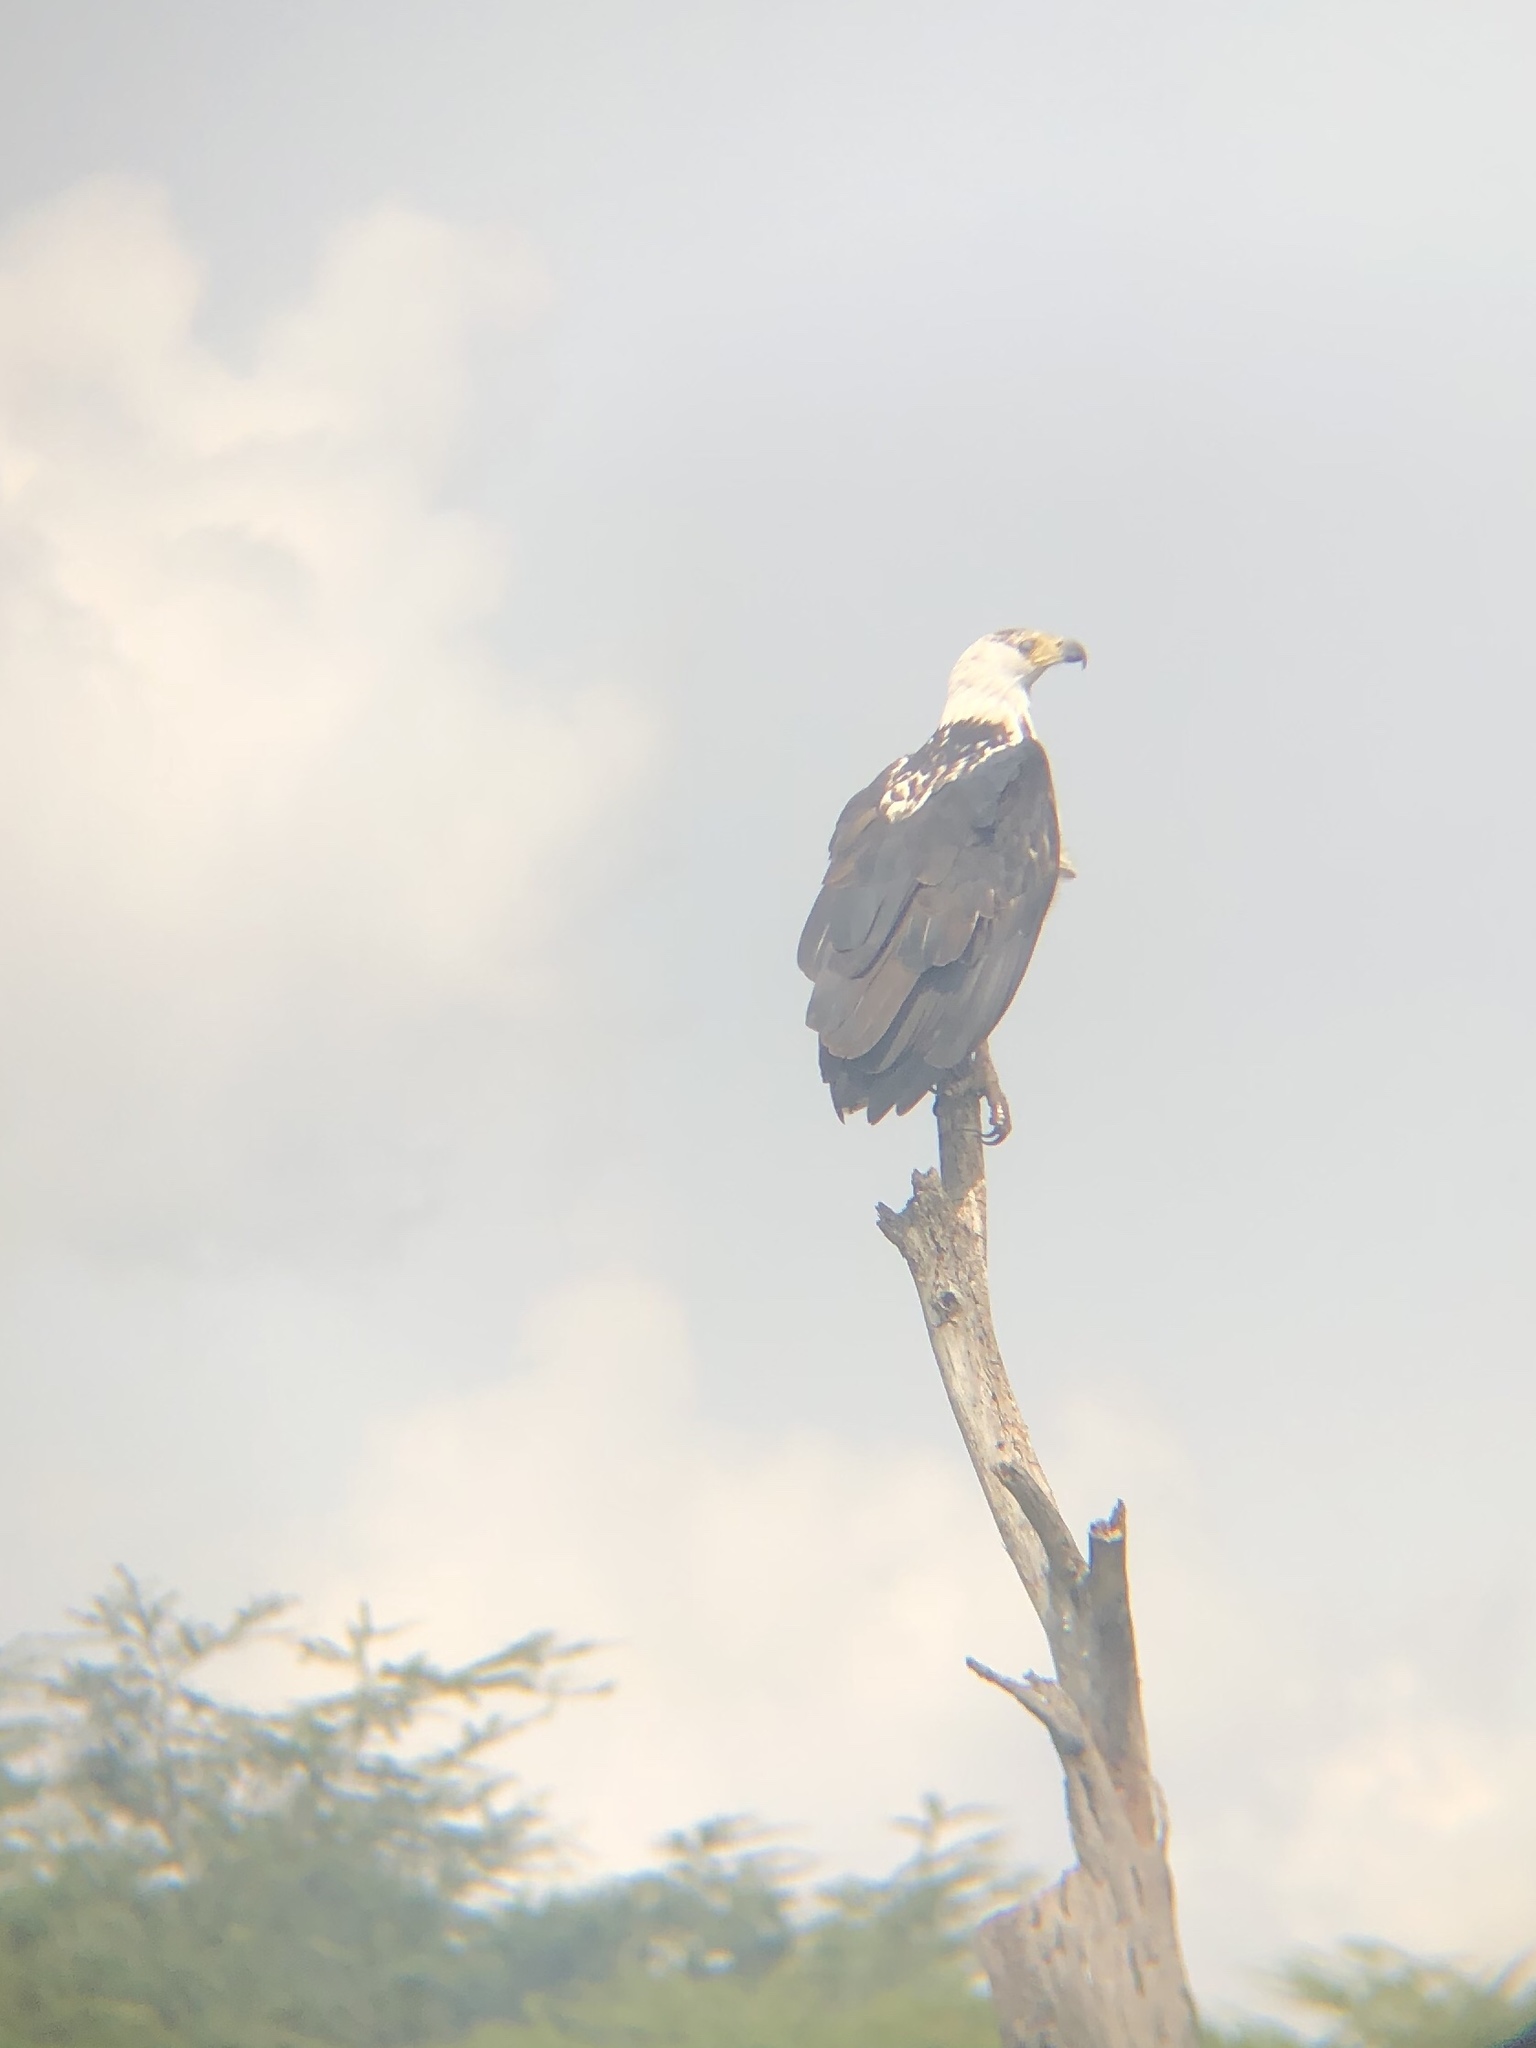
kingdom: Animalia
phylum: Chordata
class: Aves
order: Accipitriformes
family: Accipitridae
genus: Haliaeetus
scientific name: Haliaeetus vocifer
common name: African fish eagle
